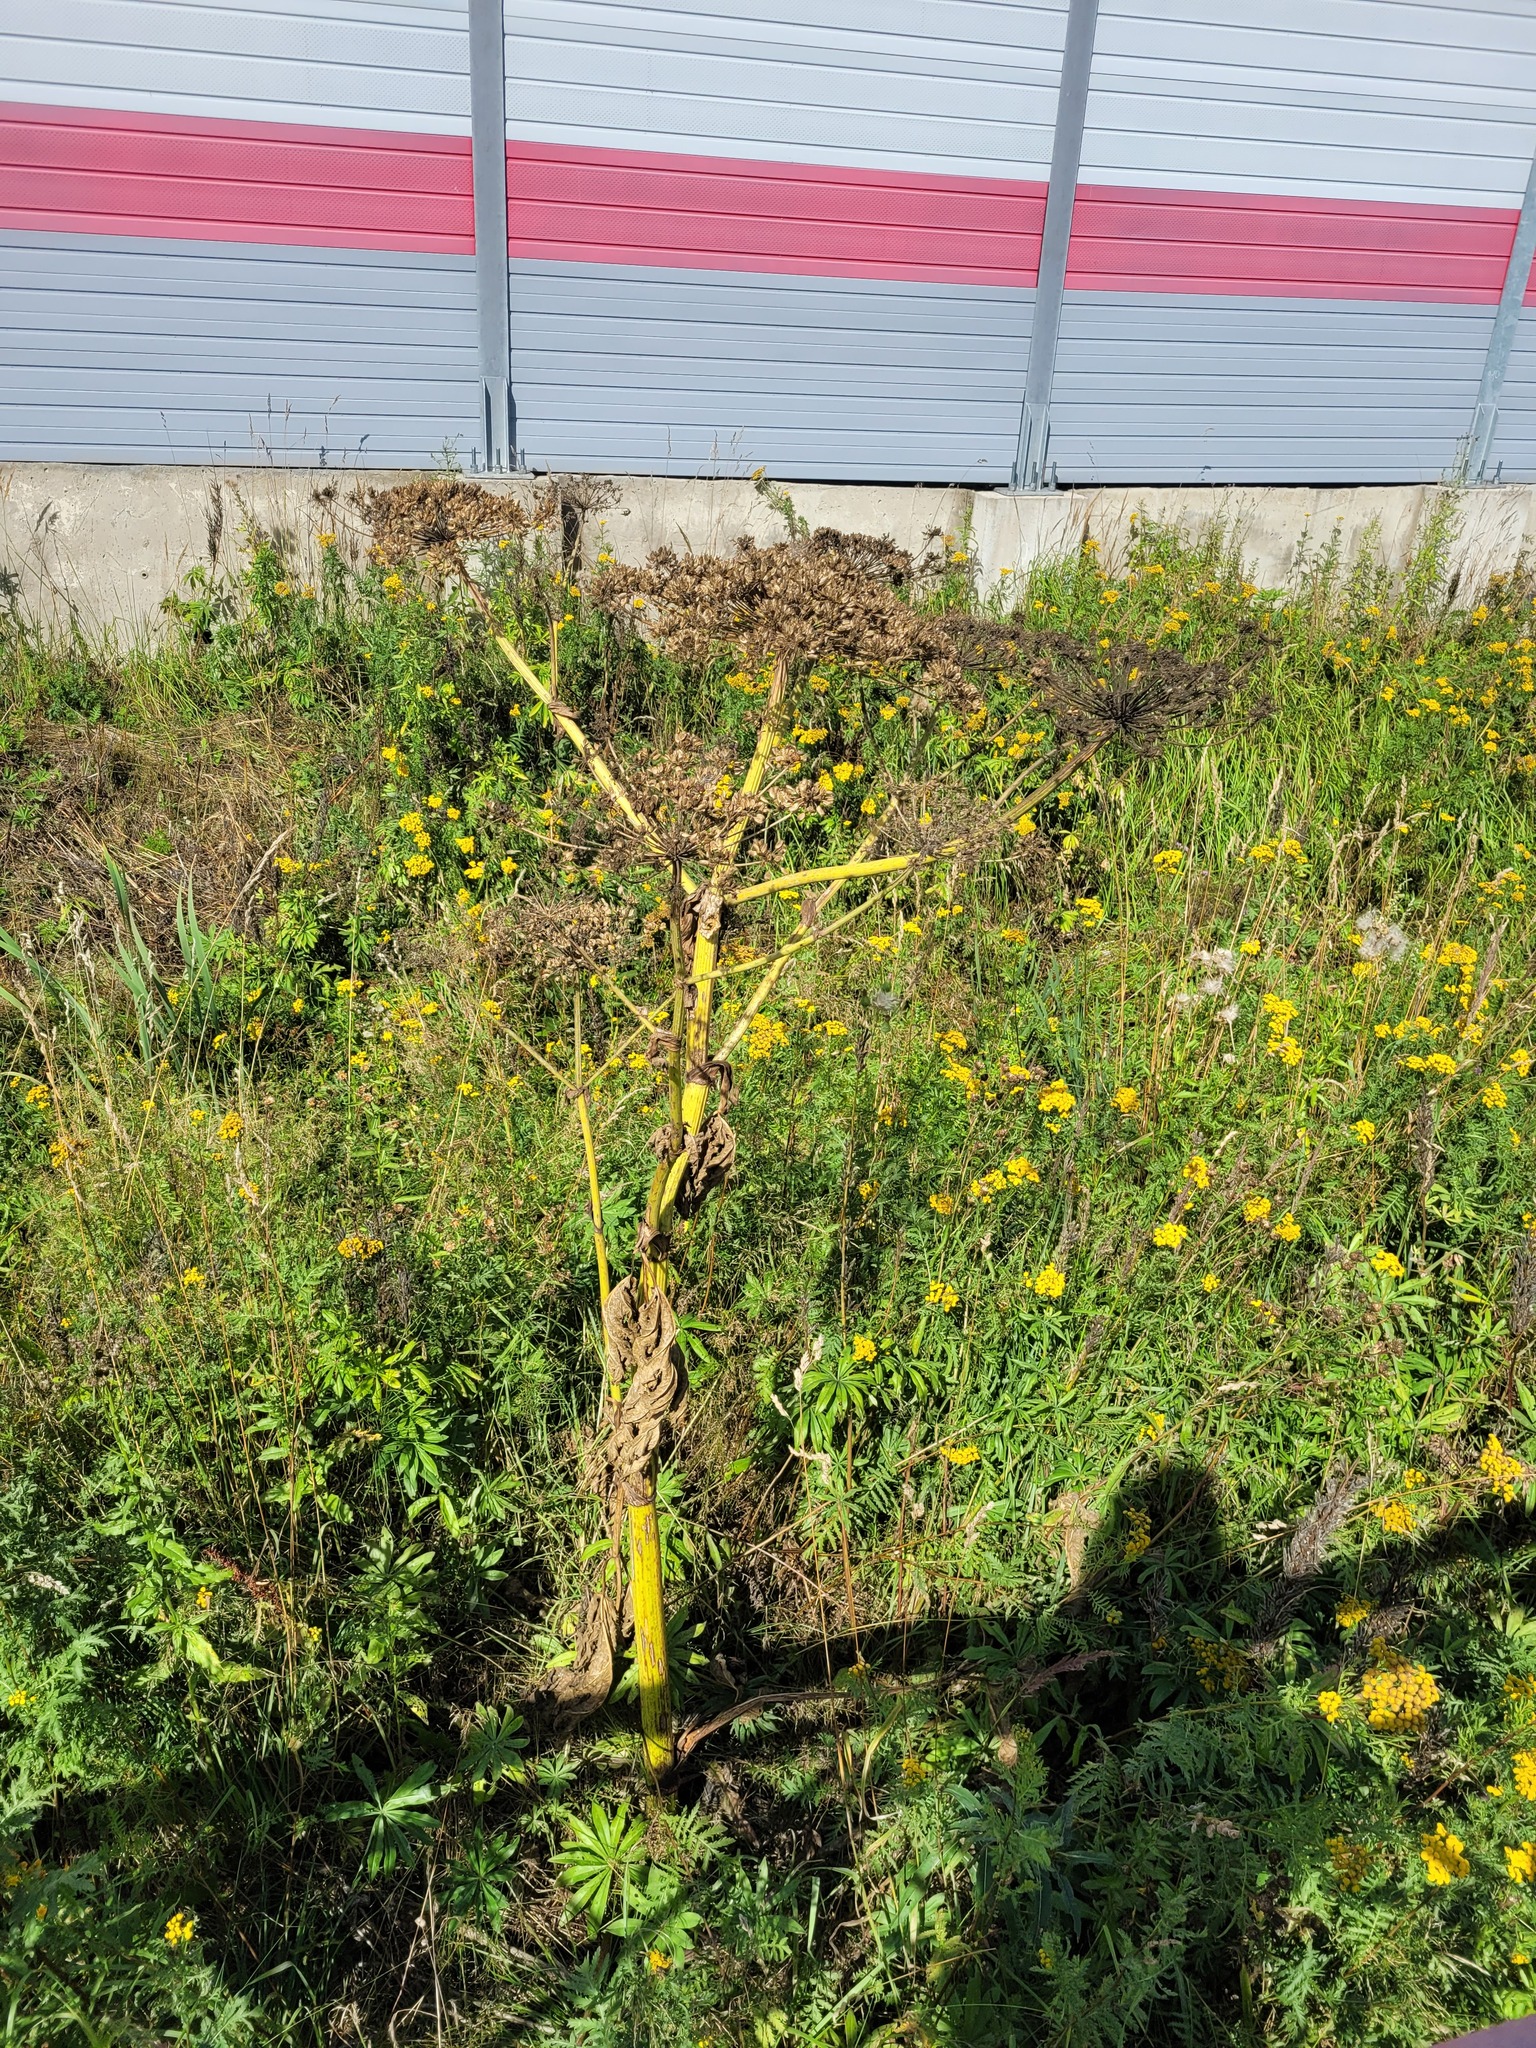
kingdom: Plantae
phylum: Tracheophyta
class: Magnoliopsida
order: Apiales
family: Apiaceae
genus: Heracleum
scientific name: Heracleum sosnowskyi
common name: Sosnowsky's hogweed
